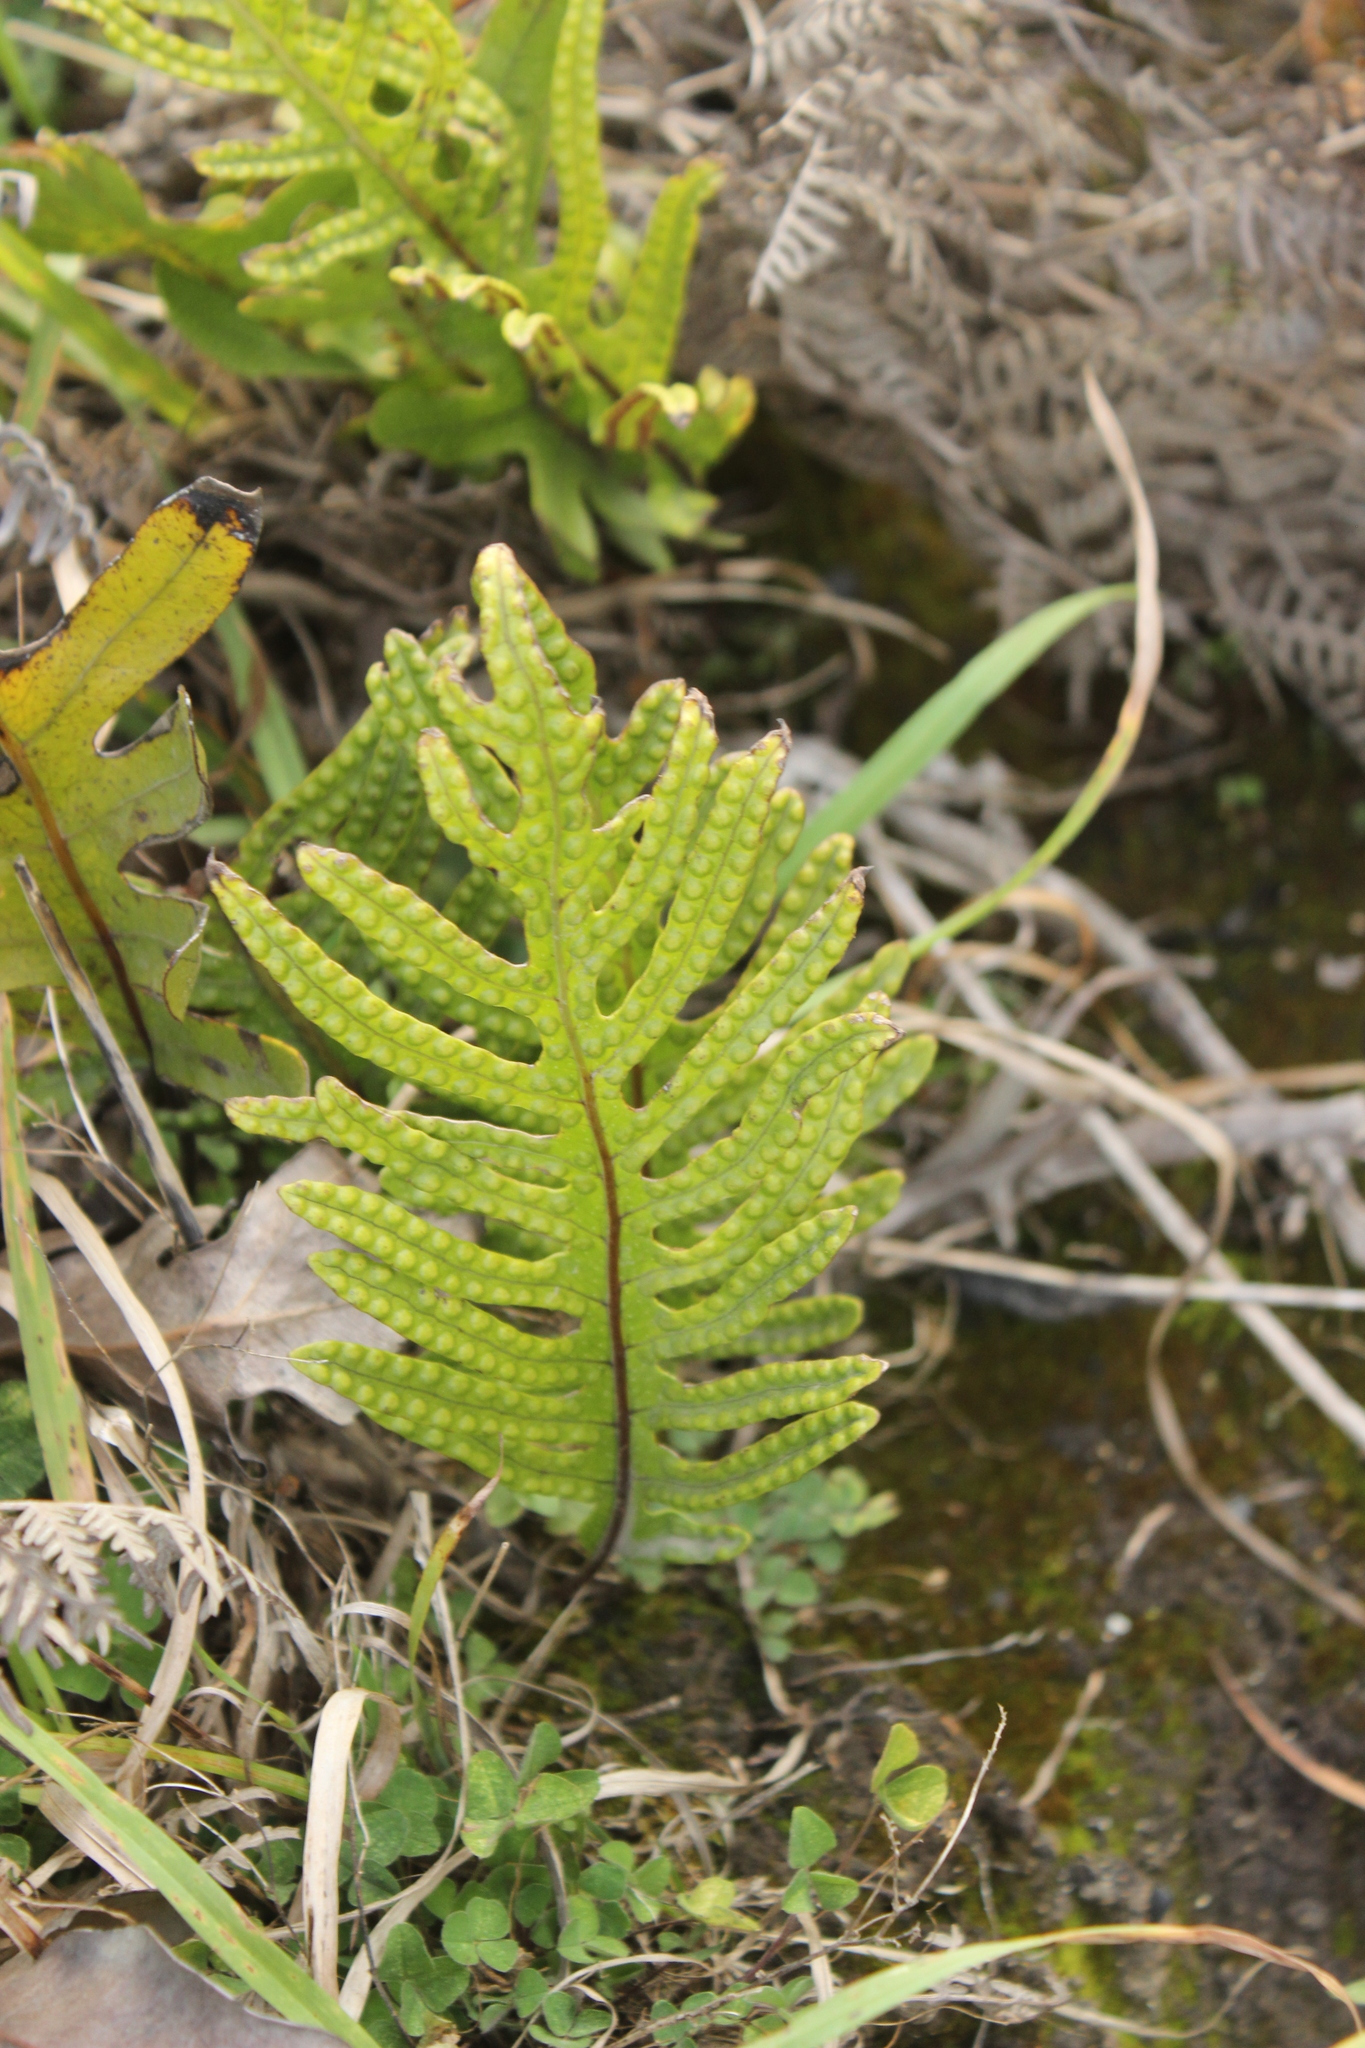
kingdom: Plantae
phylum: Tracheophyta
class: Polypodiopsida
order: Polypodiales
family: Polypodiaceae
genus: Lecanopteris
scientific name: Lecanopteris pustulata
